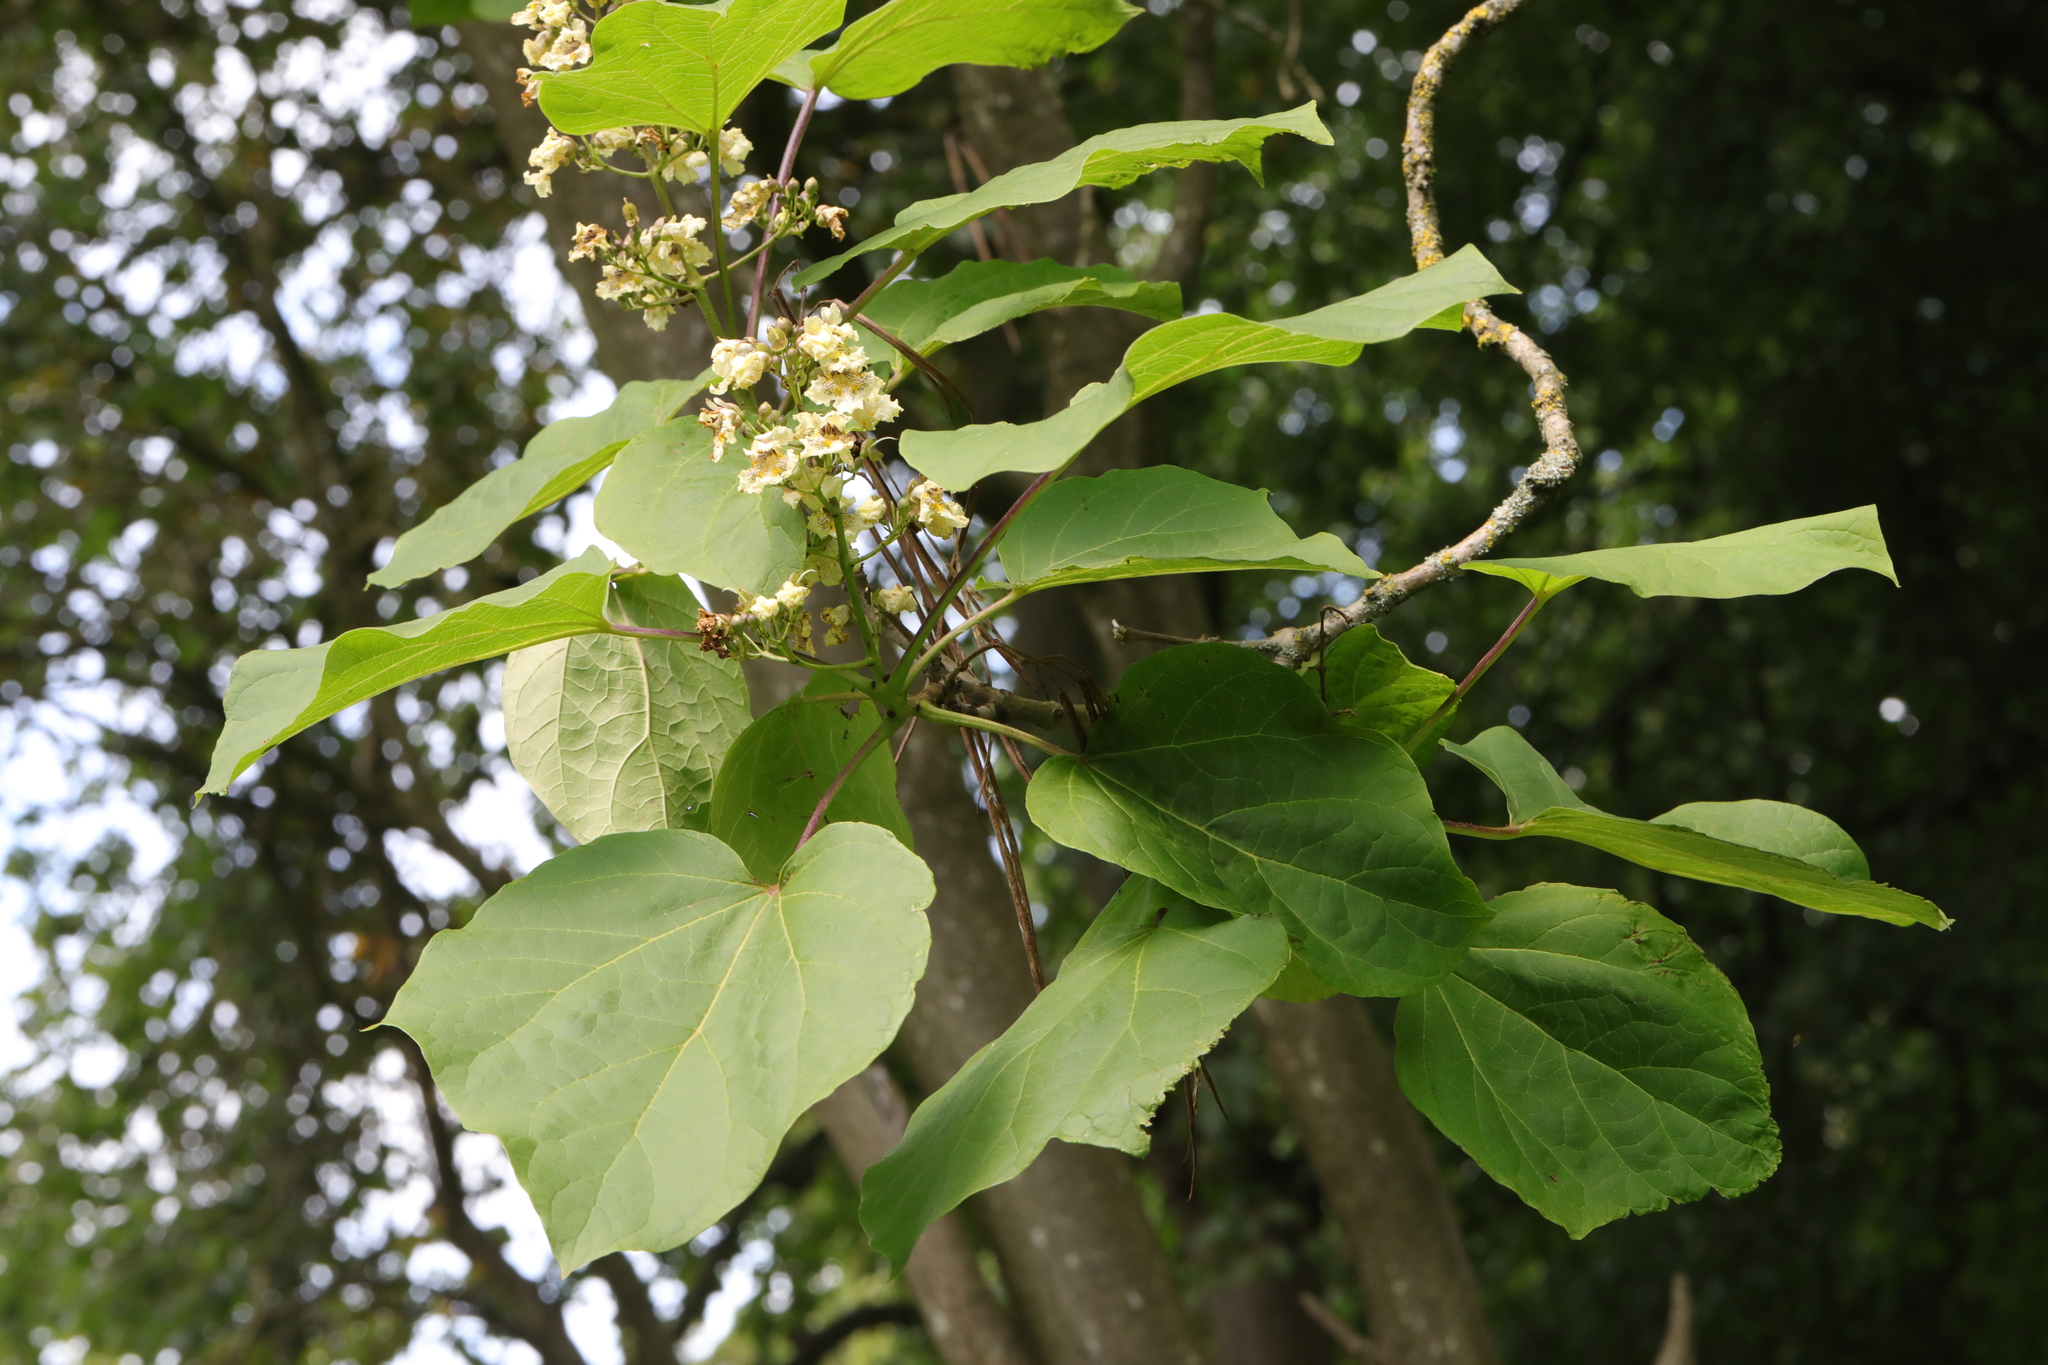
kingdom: Plantae
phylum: Tracheophyta
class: Magnoliopsida
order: Lamiales
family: Bignoniaceae
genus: Catalpa
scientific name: Catalpa bignonioides
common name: Southern catalpa
